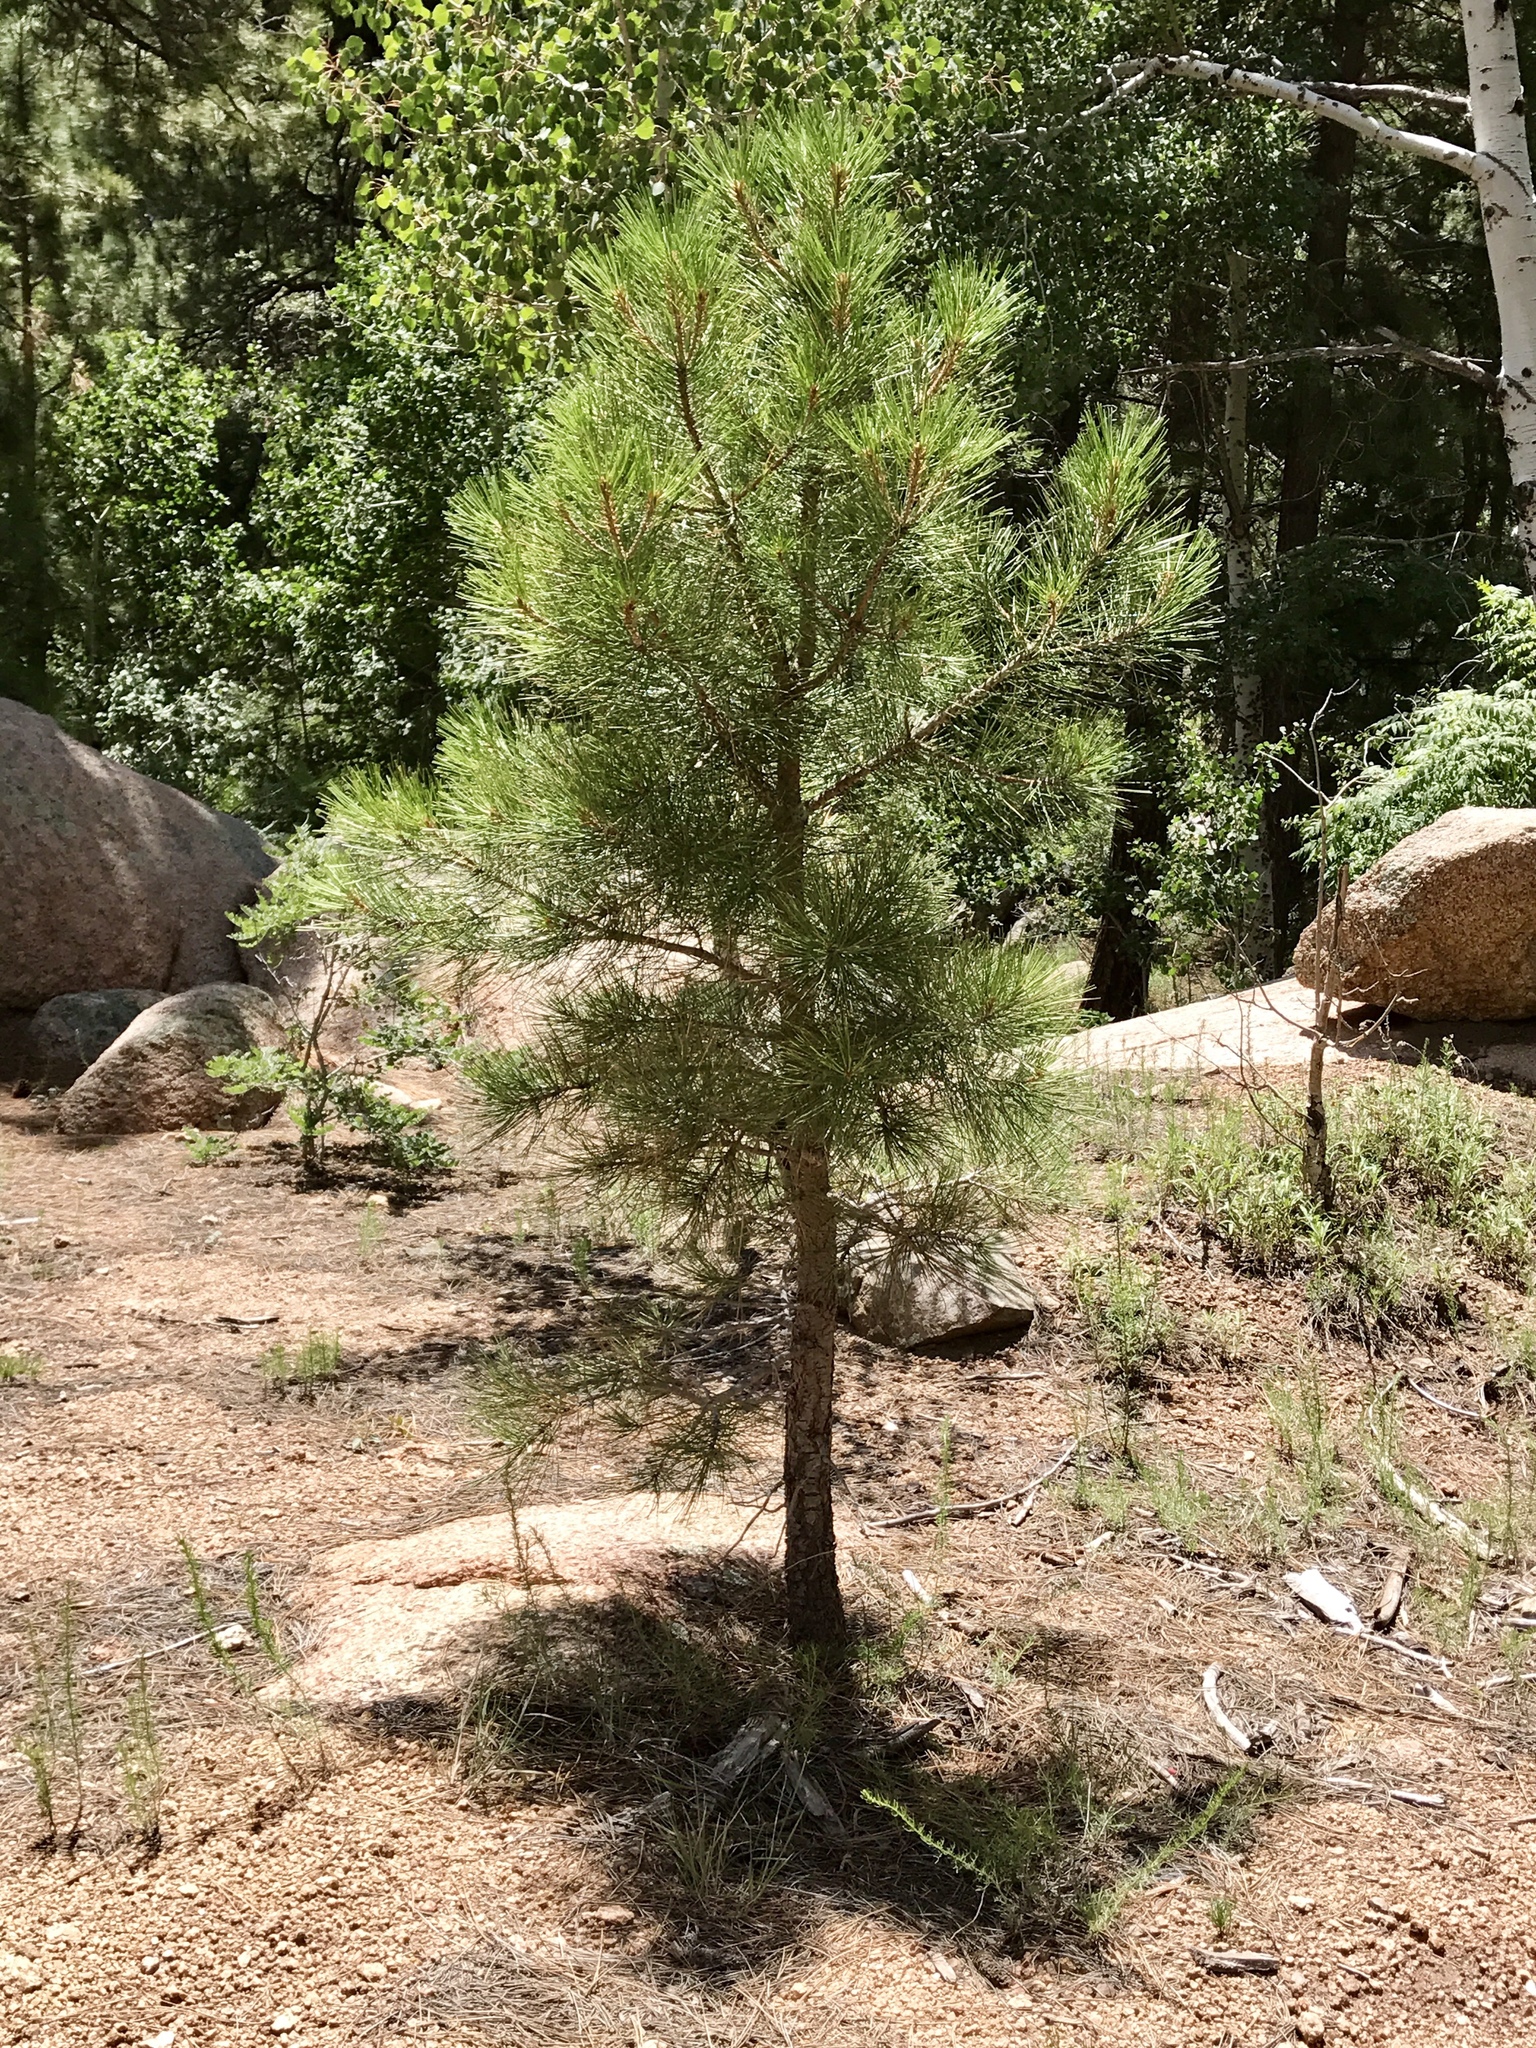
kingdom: Plantae
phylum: Tracheophyta
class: Pinopsida
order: Pinales
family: Pinaceae
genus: Pinus
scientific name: Pinus ponderosa
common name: Western yellow-pine
